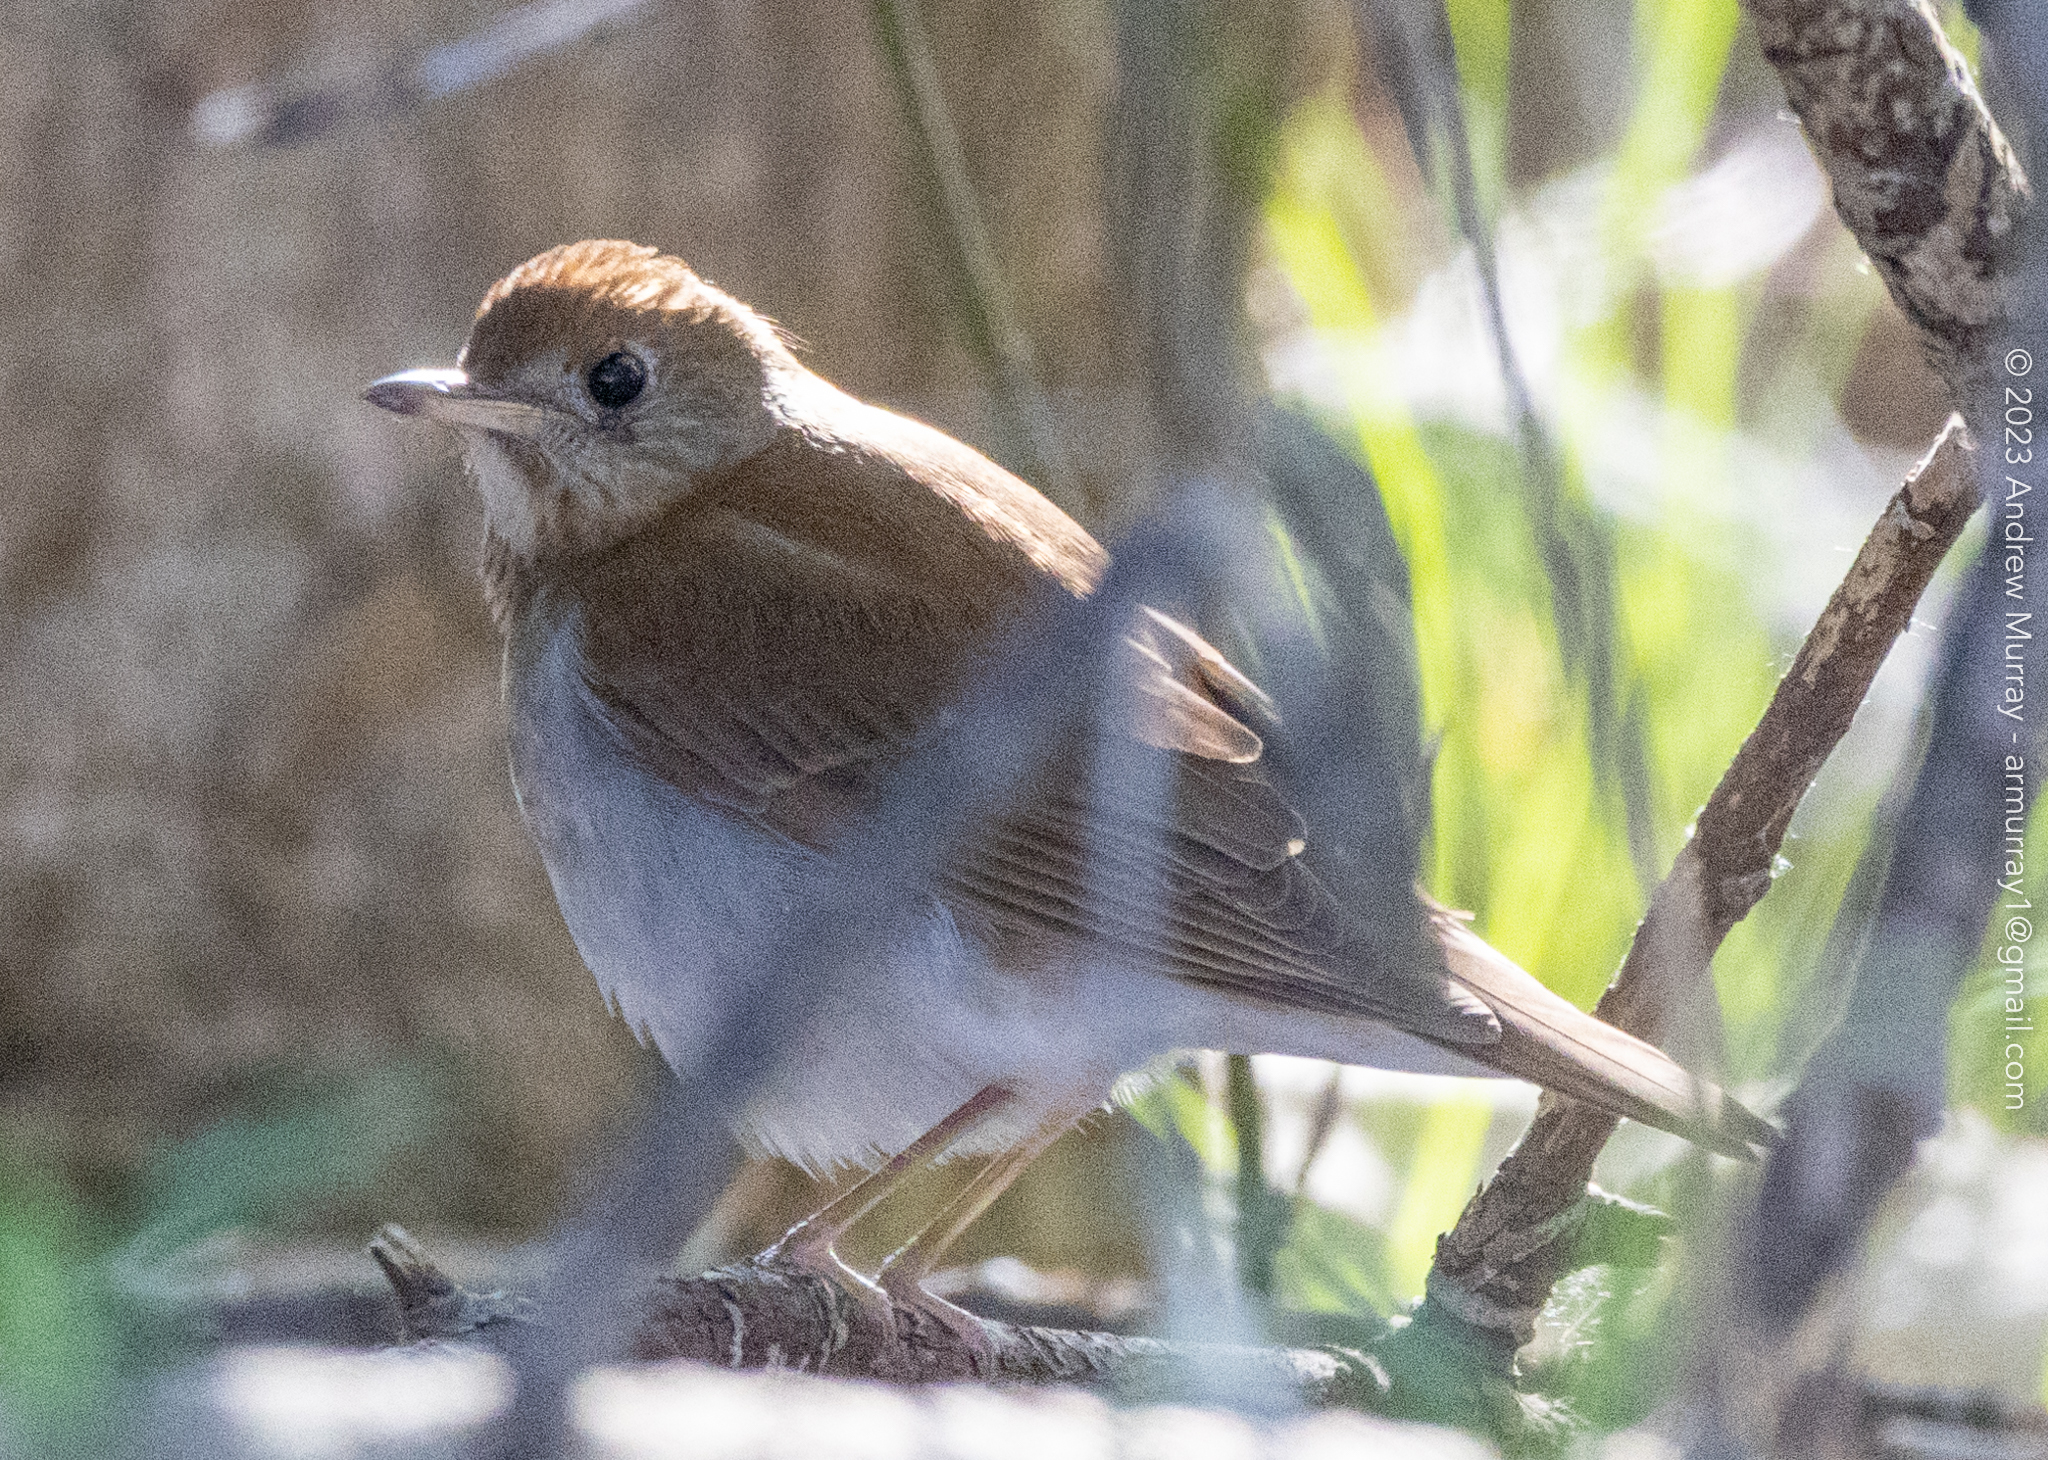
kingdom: Animalia
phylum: Chordata
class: Aves
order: Passeriformes
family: Turdidae
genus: Catharus
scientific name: Catharus fuscescens
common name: Veery
